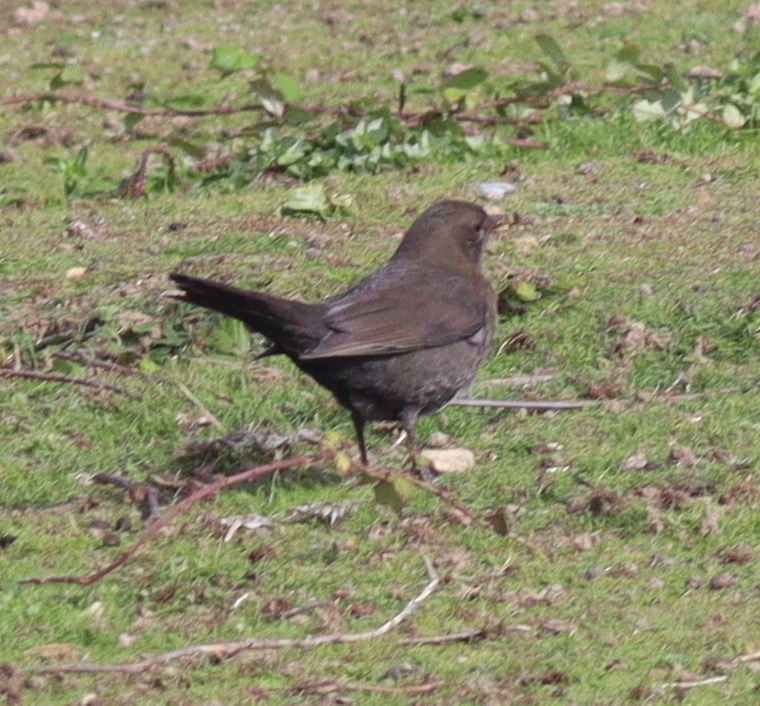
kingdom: Animalia
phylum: Chordata
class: Aves
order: Passeriformes
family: Turdidae
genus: Turdus
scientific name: Turdus merula
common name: Common blackbird
